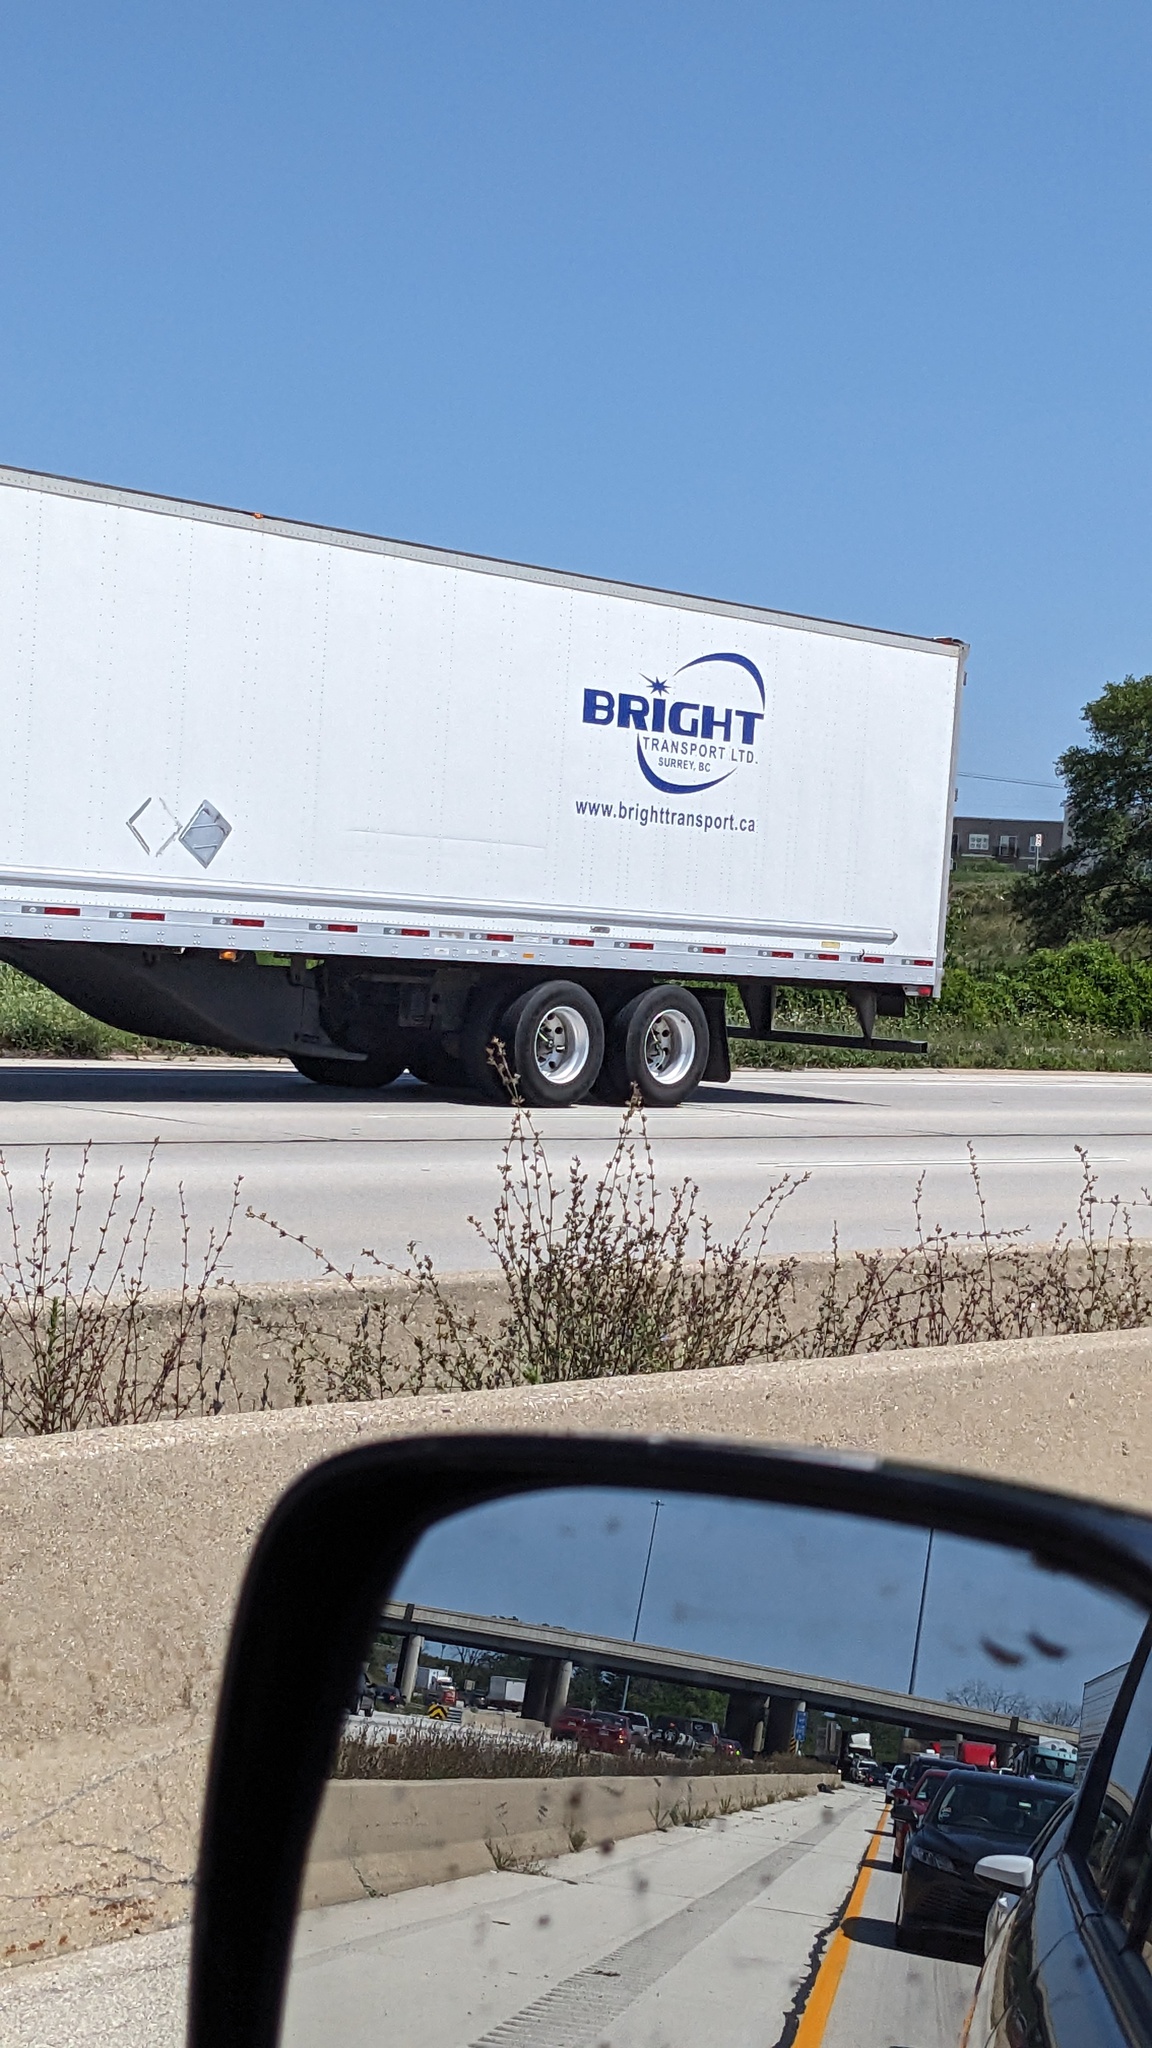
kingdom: Plantae
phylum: Tracheophyta
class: Magnoliopsida
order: Asterales
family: Asteraceae
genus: Cichorium
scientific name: Cichorium intybus
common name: Chicory
